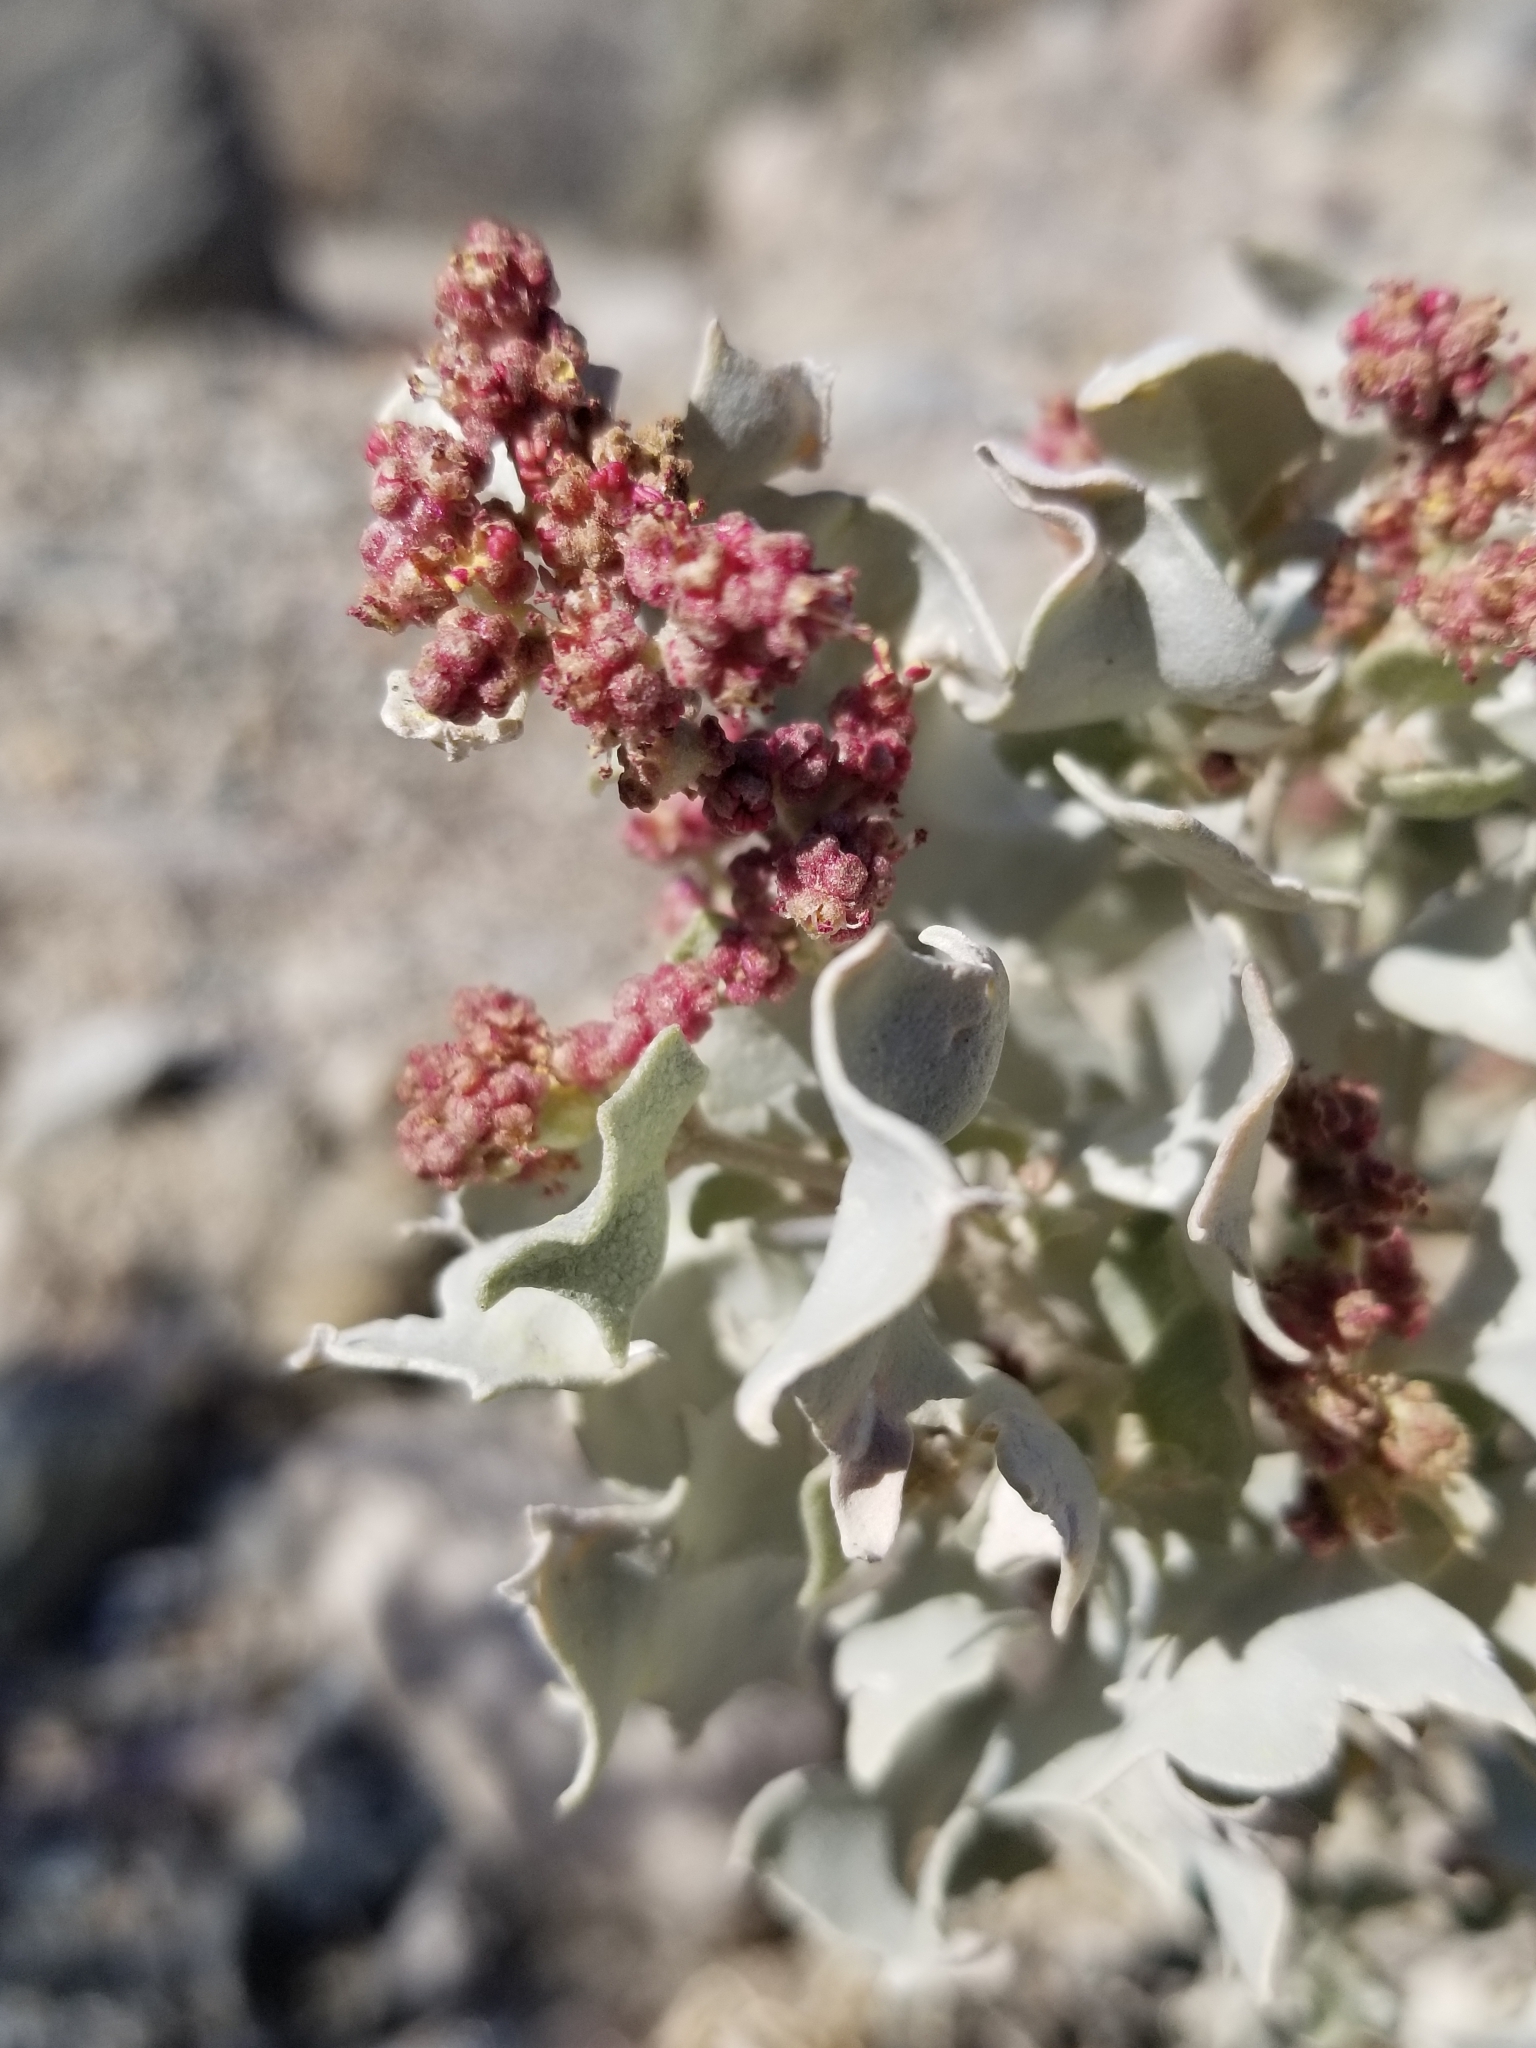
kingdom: Plantae
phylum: Tracheophyta
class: Magnoliopsida
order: Caryophyllales
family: Amaranthaceae
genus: Atriplex
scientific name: Atriplex hymenelytra
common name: Desert-holly
